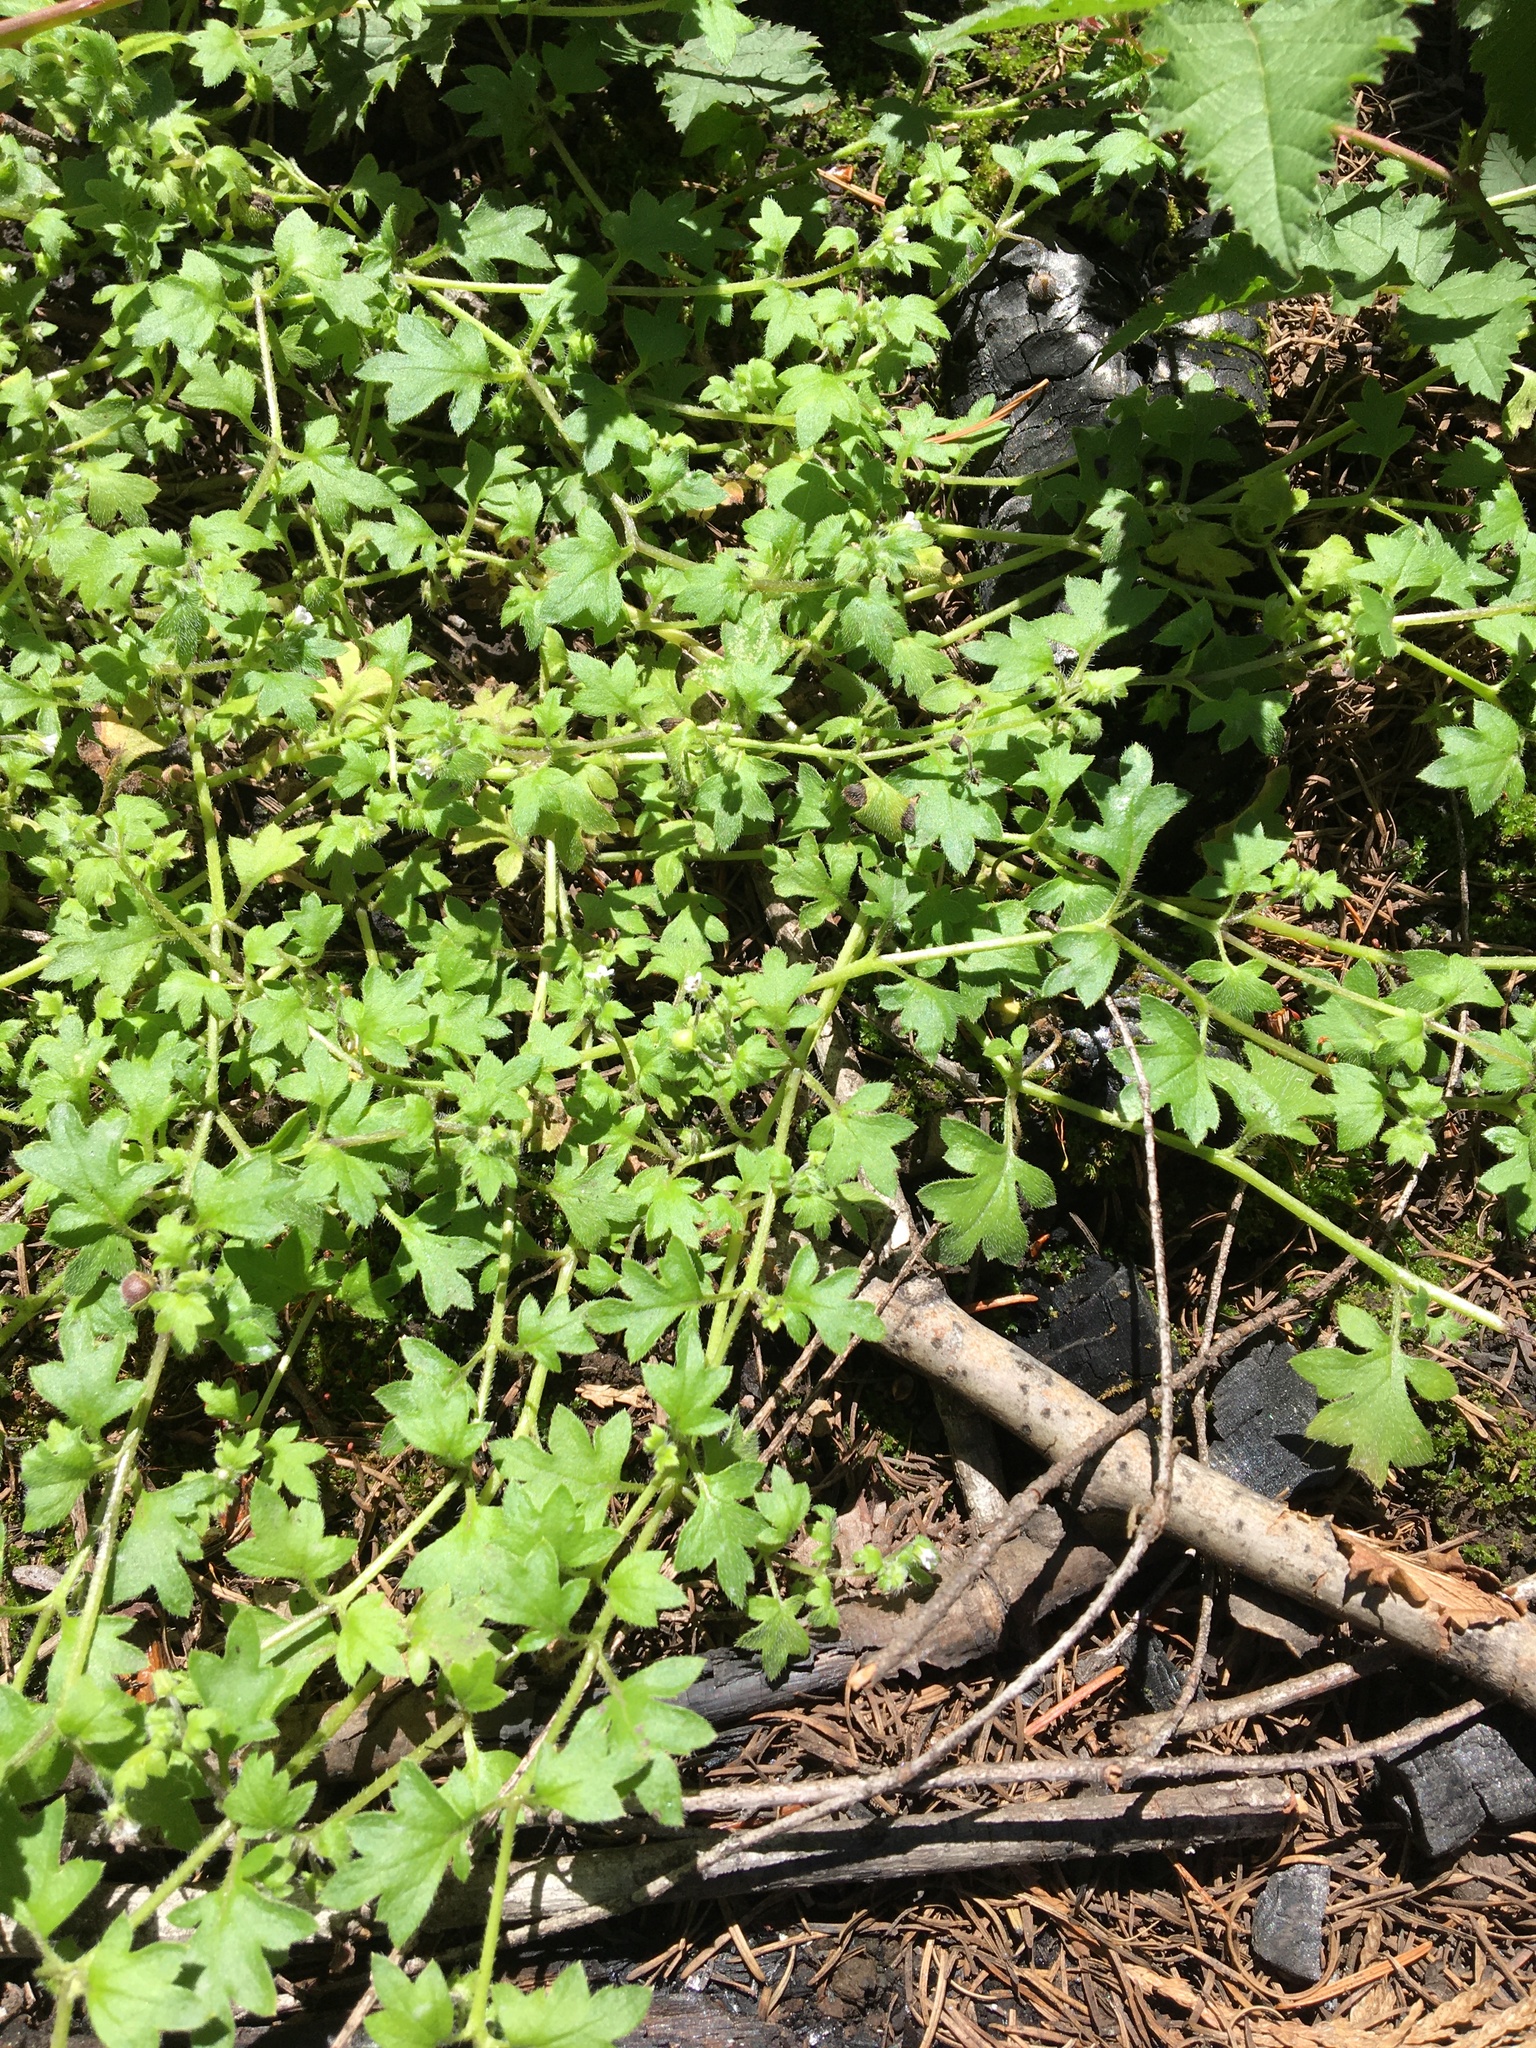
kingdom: Plantae
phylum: Tracheophyta
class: Magnoliopsida
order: Boraginales
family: Hydrophyllaceae
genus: Nemophila
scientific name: Nemophila parviflora
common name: Small-flowered baby-blue-eyes
